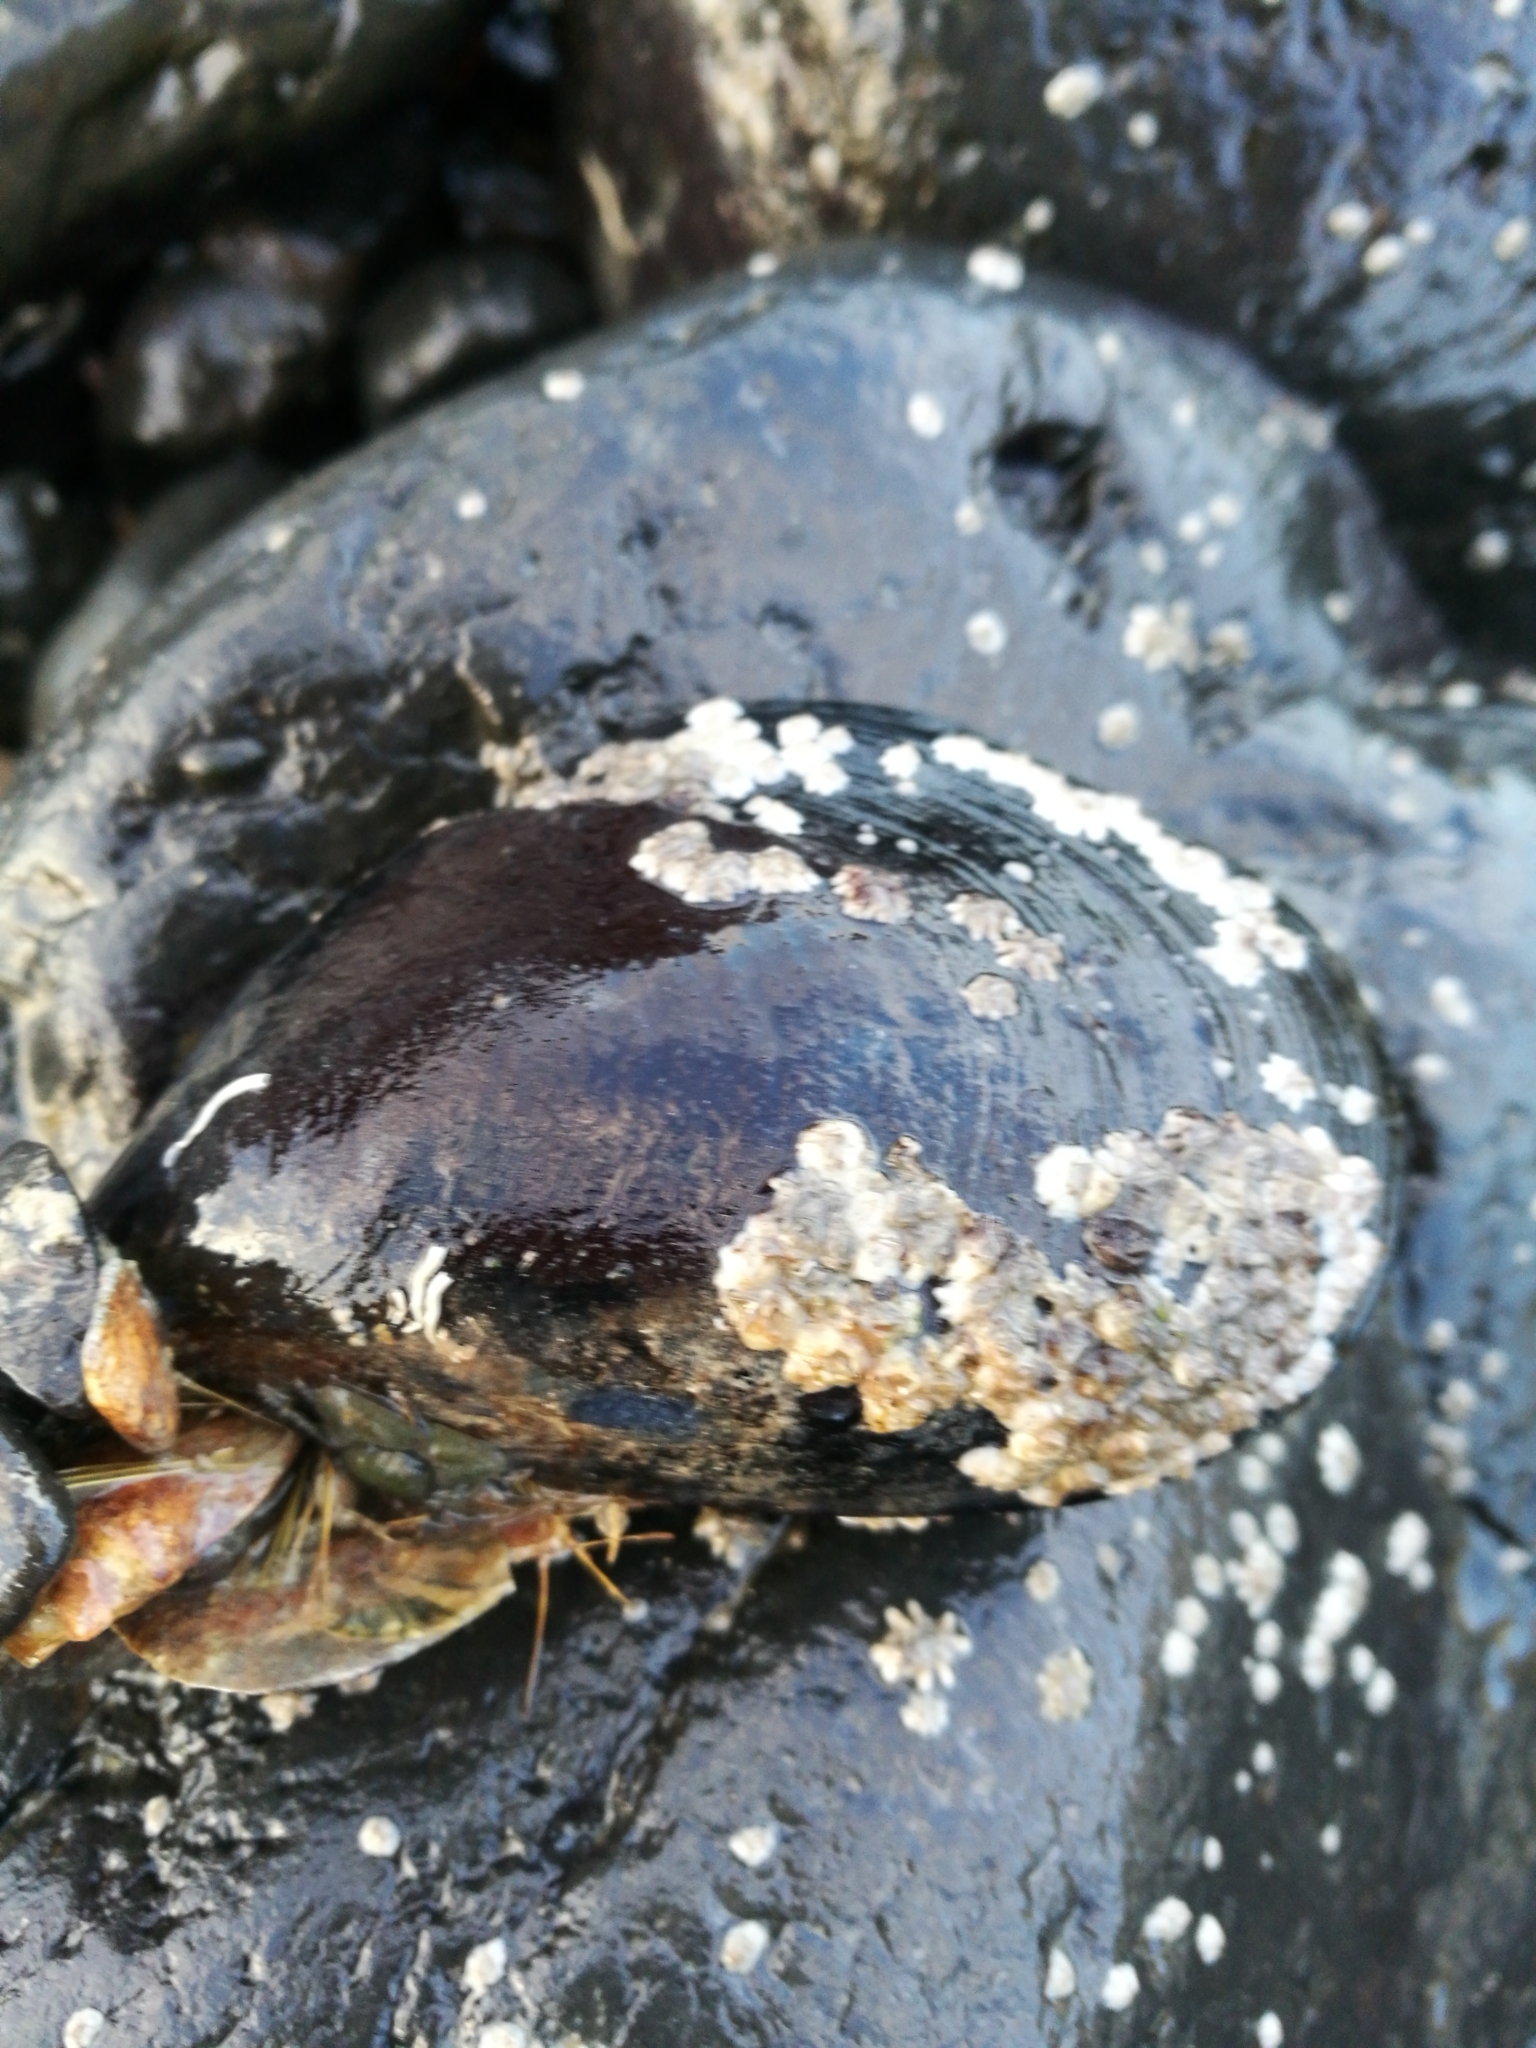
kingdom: Animalia
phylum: Mollusca
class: Bivalvia
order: Mytilida
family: Mytilidae
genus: Perna
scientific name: Perna canaliculus
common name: New zealand greenshelltm
